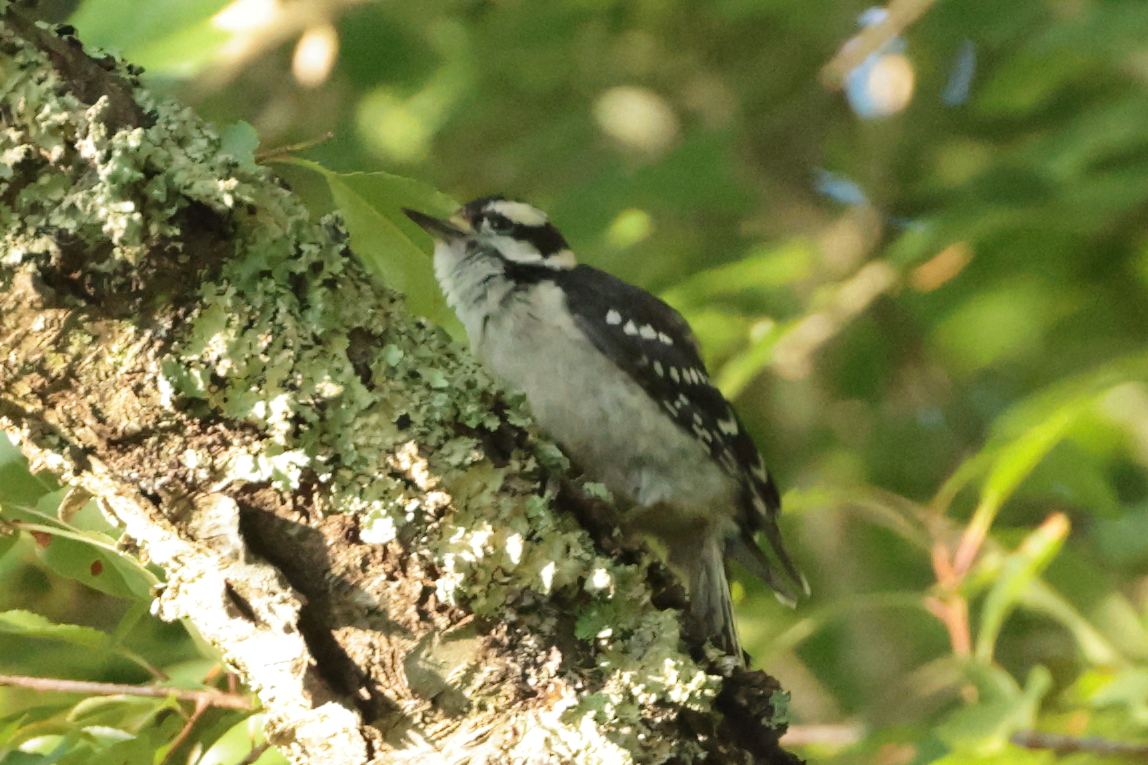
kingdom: Animalia
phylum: Chordata
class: Aves
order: Piciformes
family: Picidae
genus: Dryobates
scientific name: Dryobates pubescens
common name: Downy woodpecker
